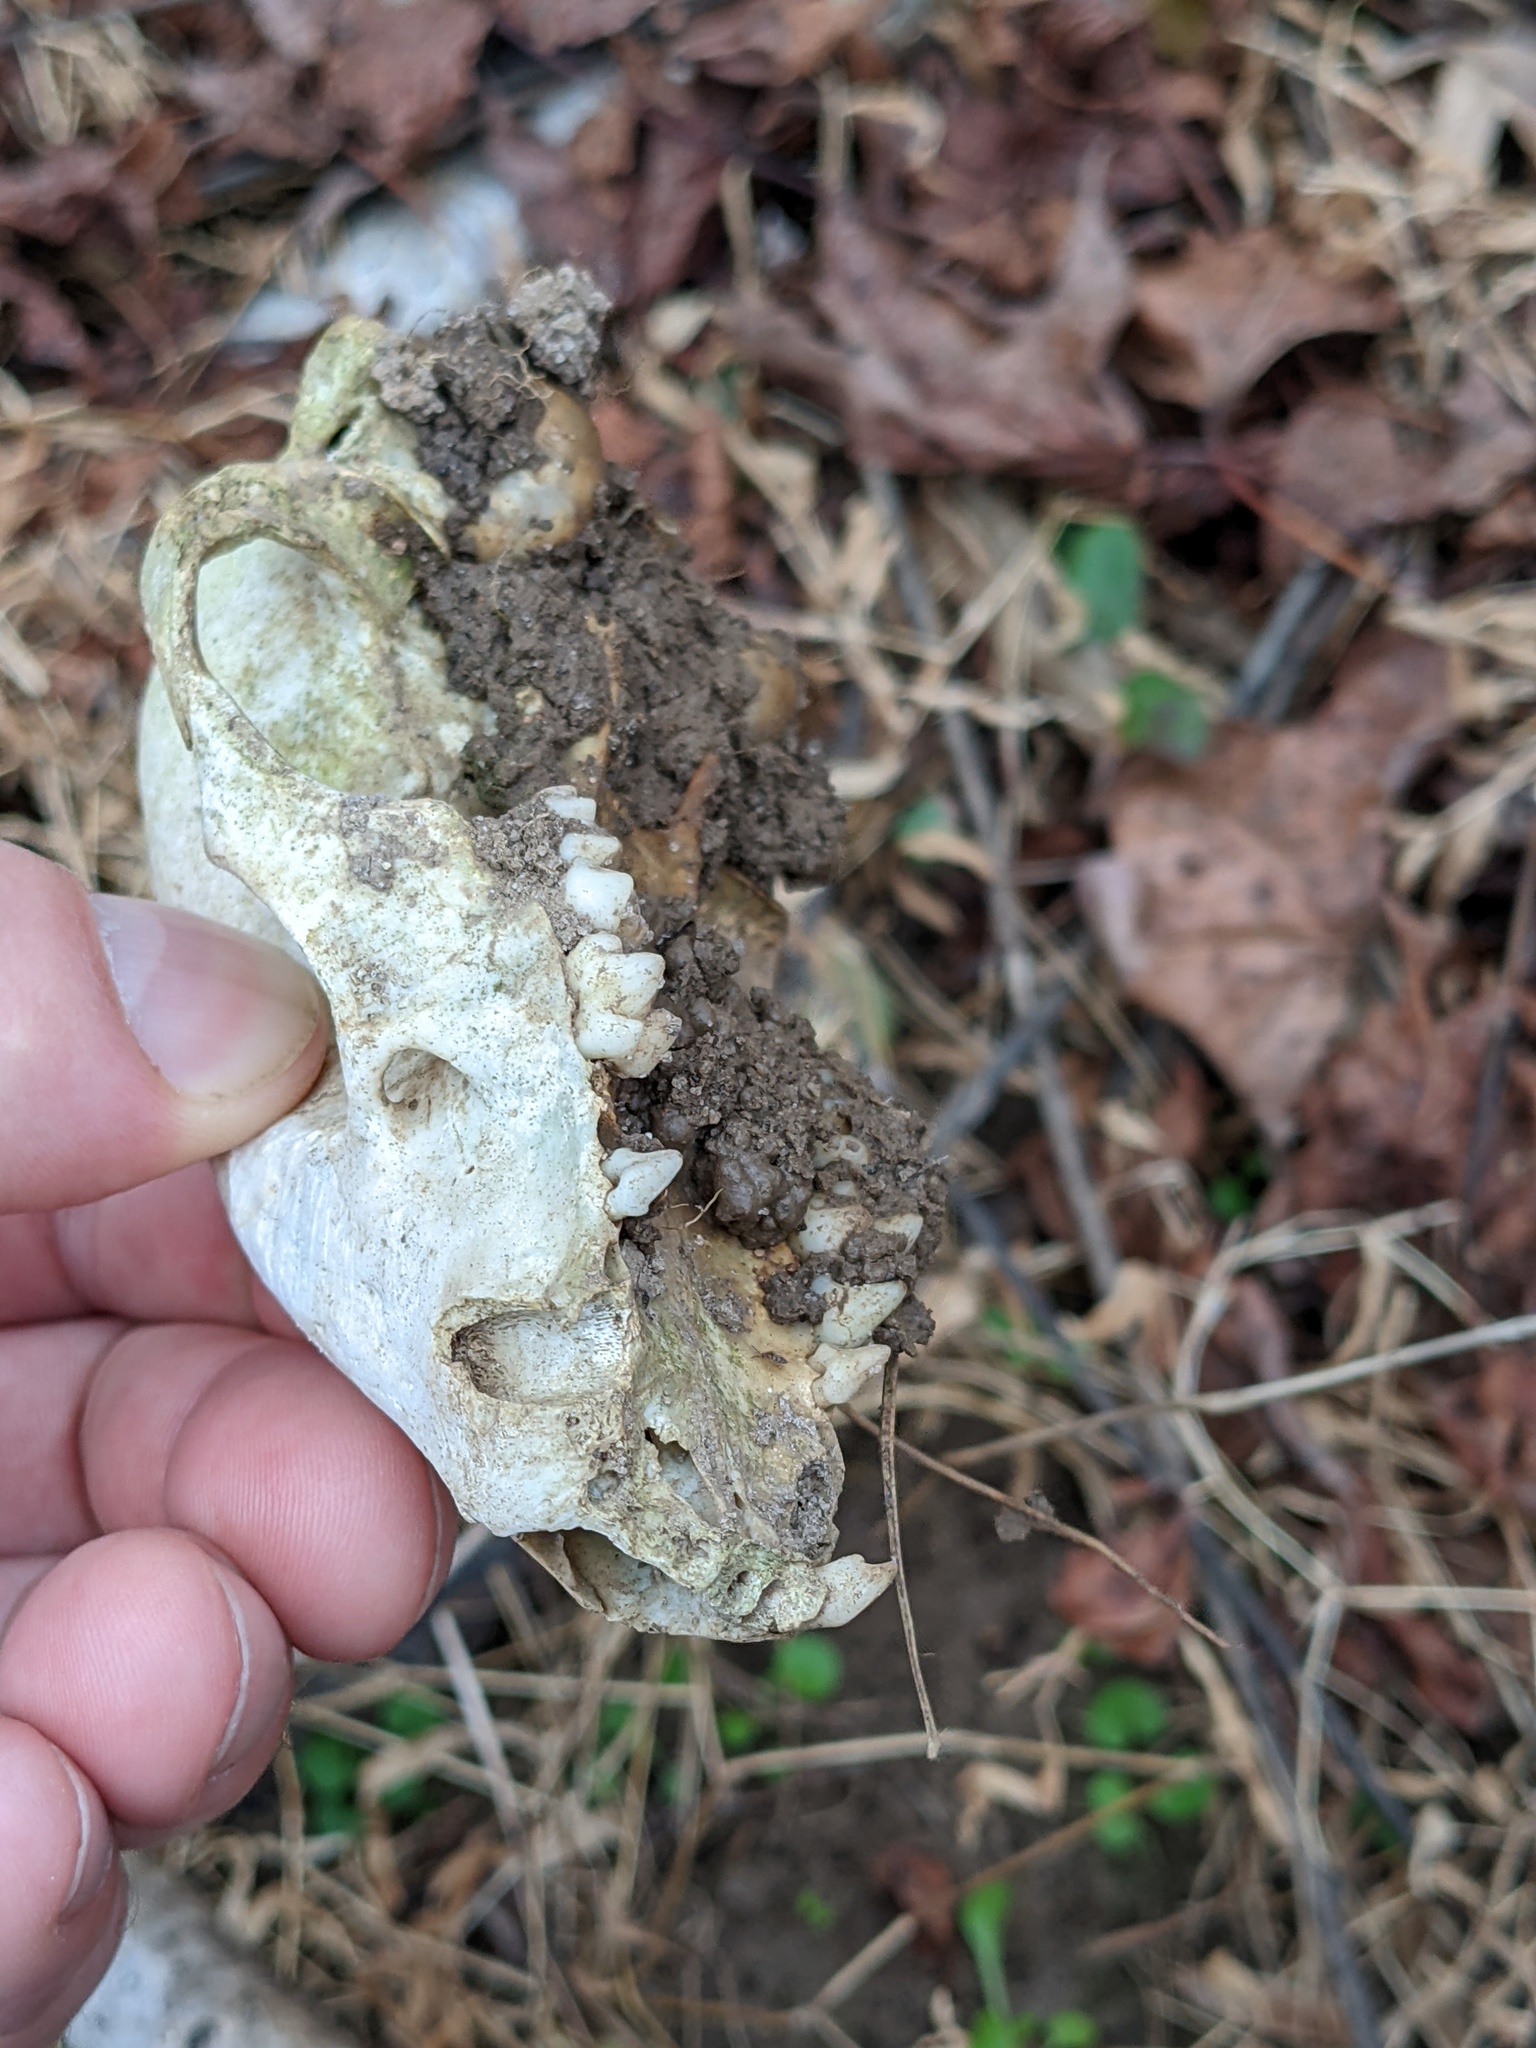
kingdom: Animalia
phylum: Chordata
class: Mammalia
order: Carnivora
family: Procyonidae
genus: Procyon
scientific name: Procyon lotor
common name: Raccoon
